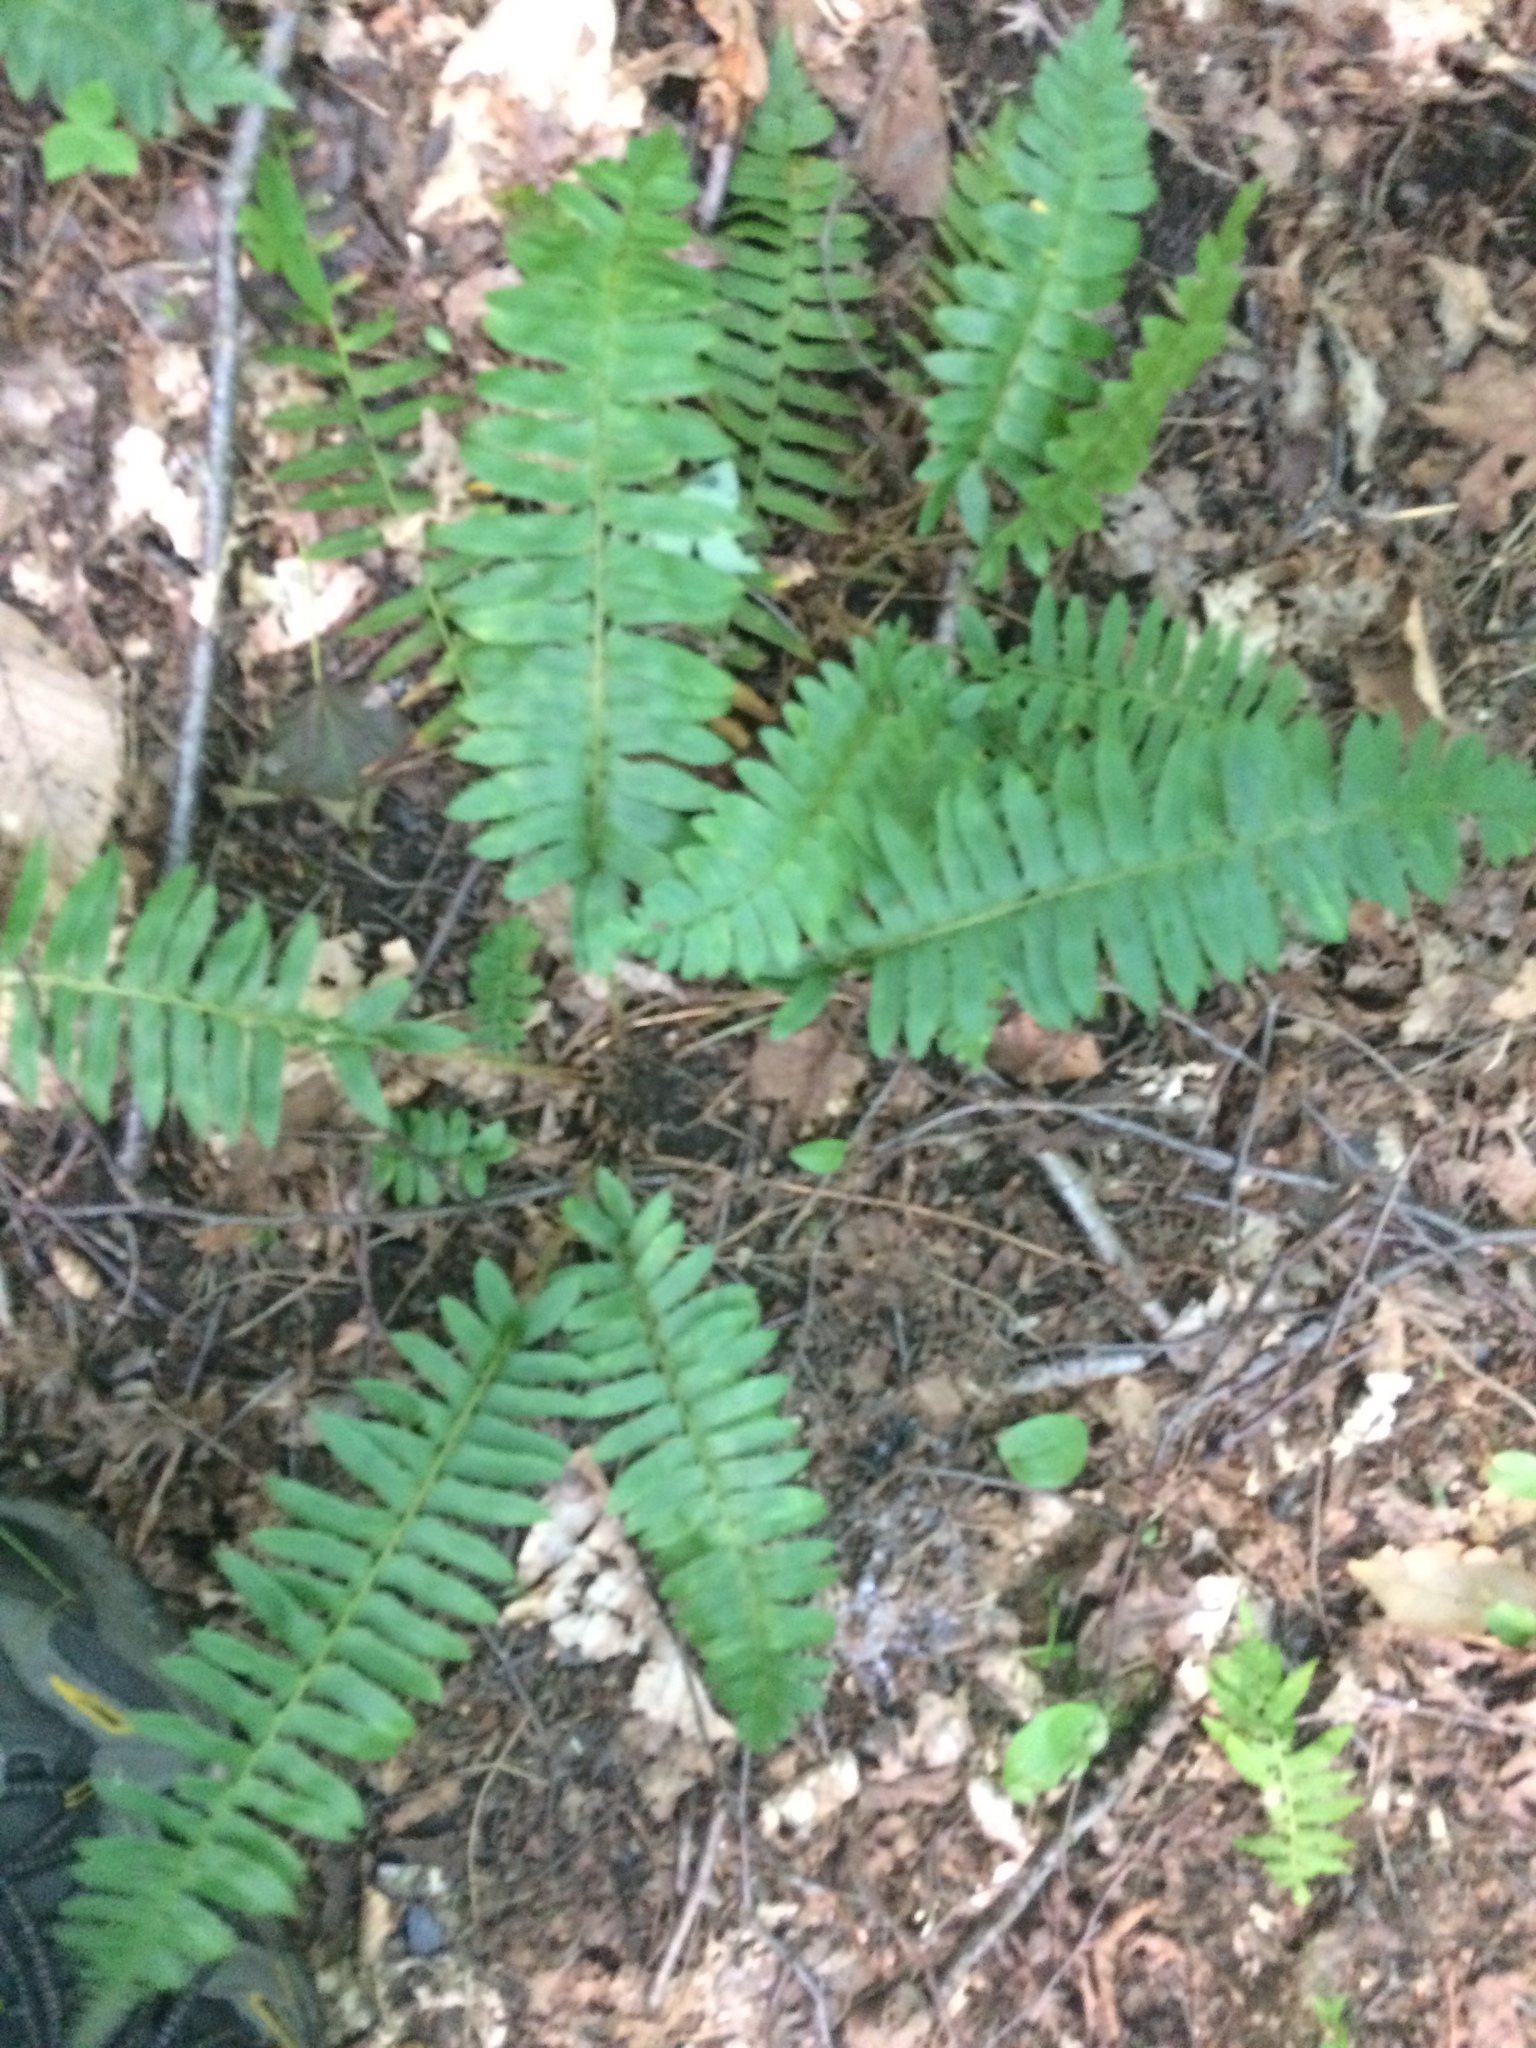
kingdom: Plantae
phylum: Tracheophyta
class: Polypodiopsida
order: Polypodiales
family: Dryopteridaceae
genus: Polystichum
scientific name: Polystichum acrostichoides
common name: Christmas fern
